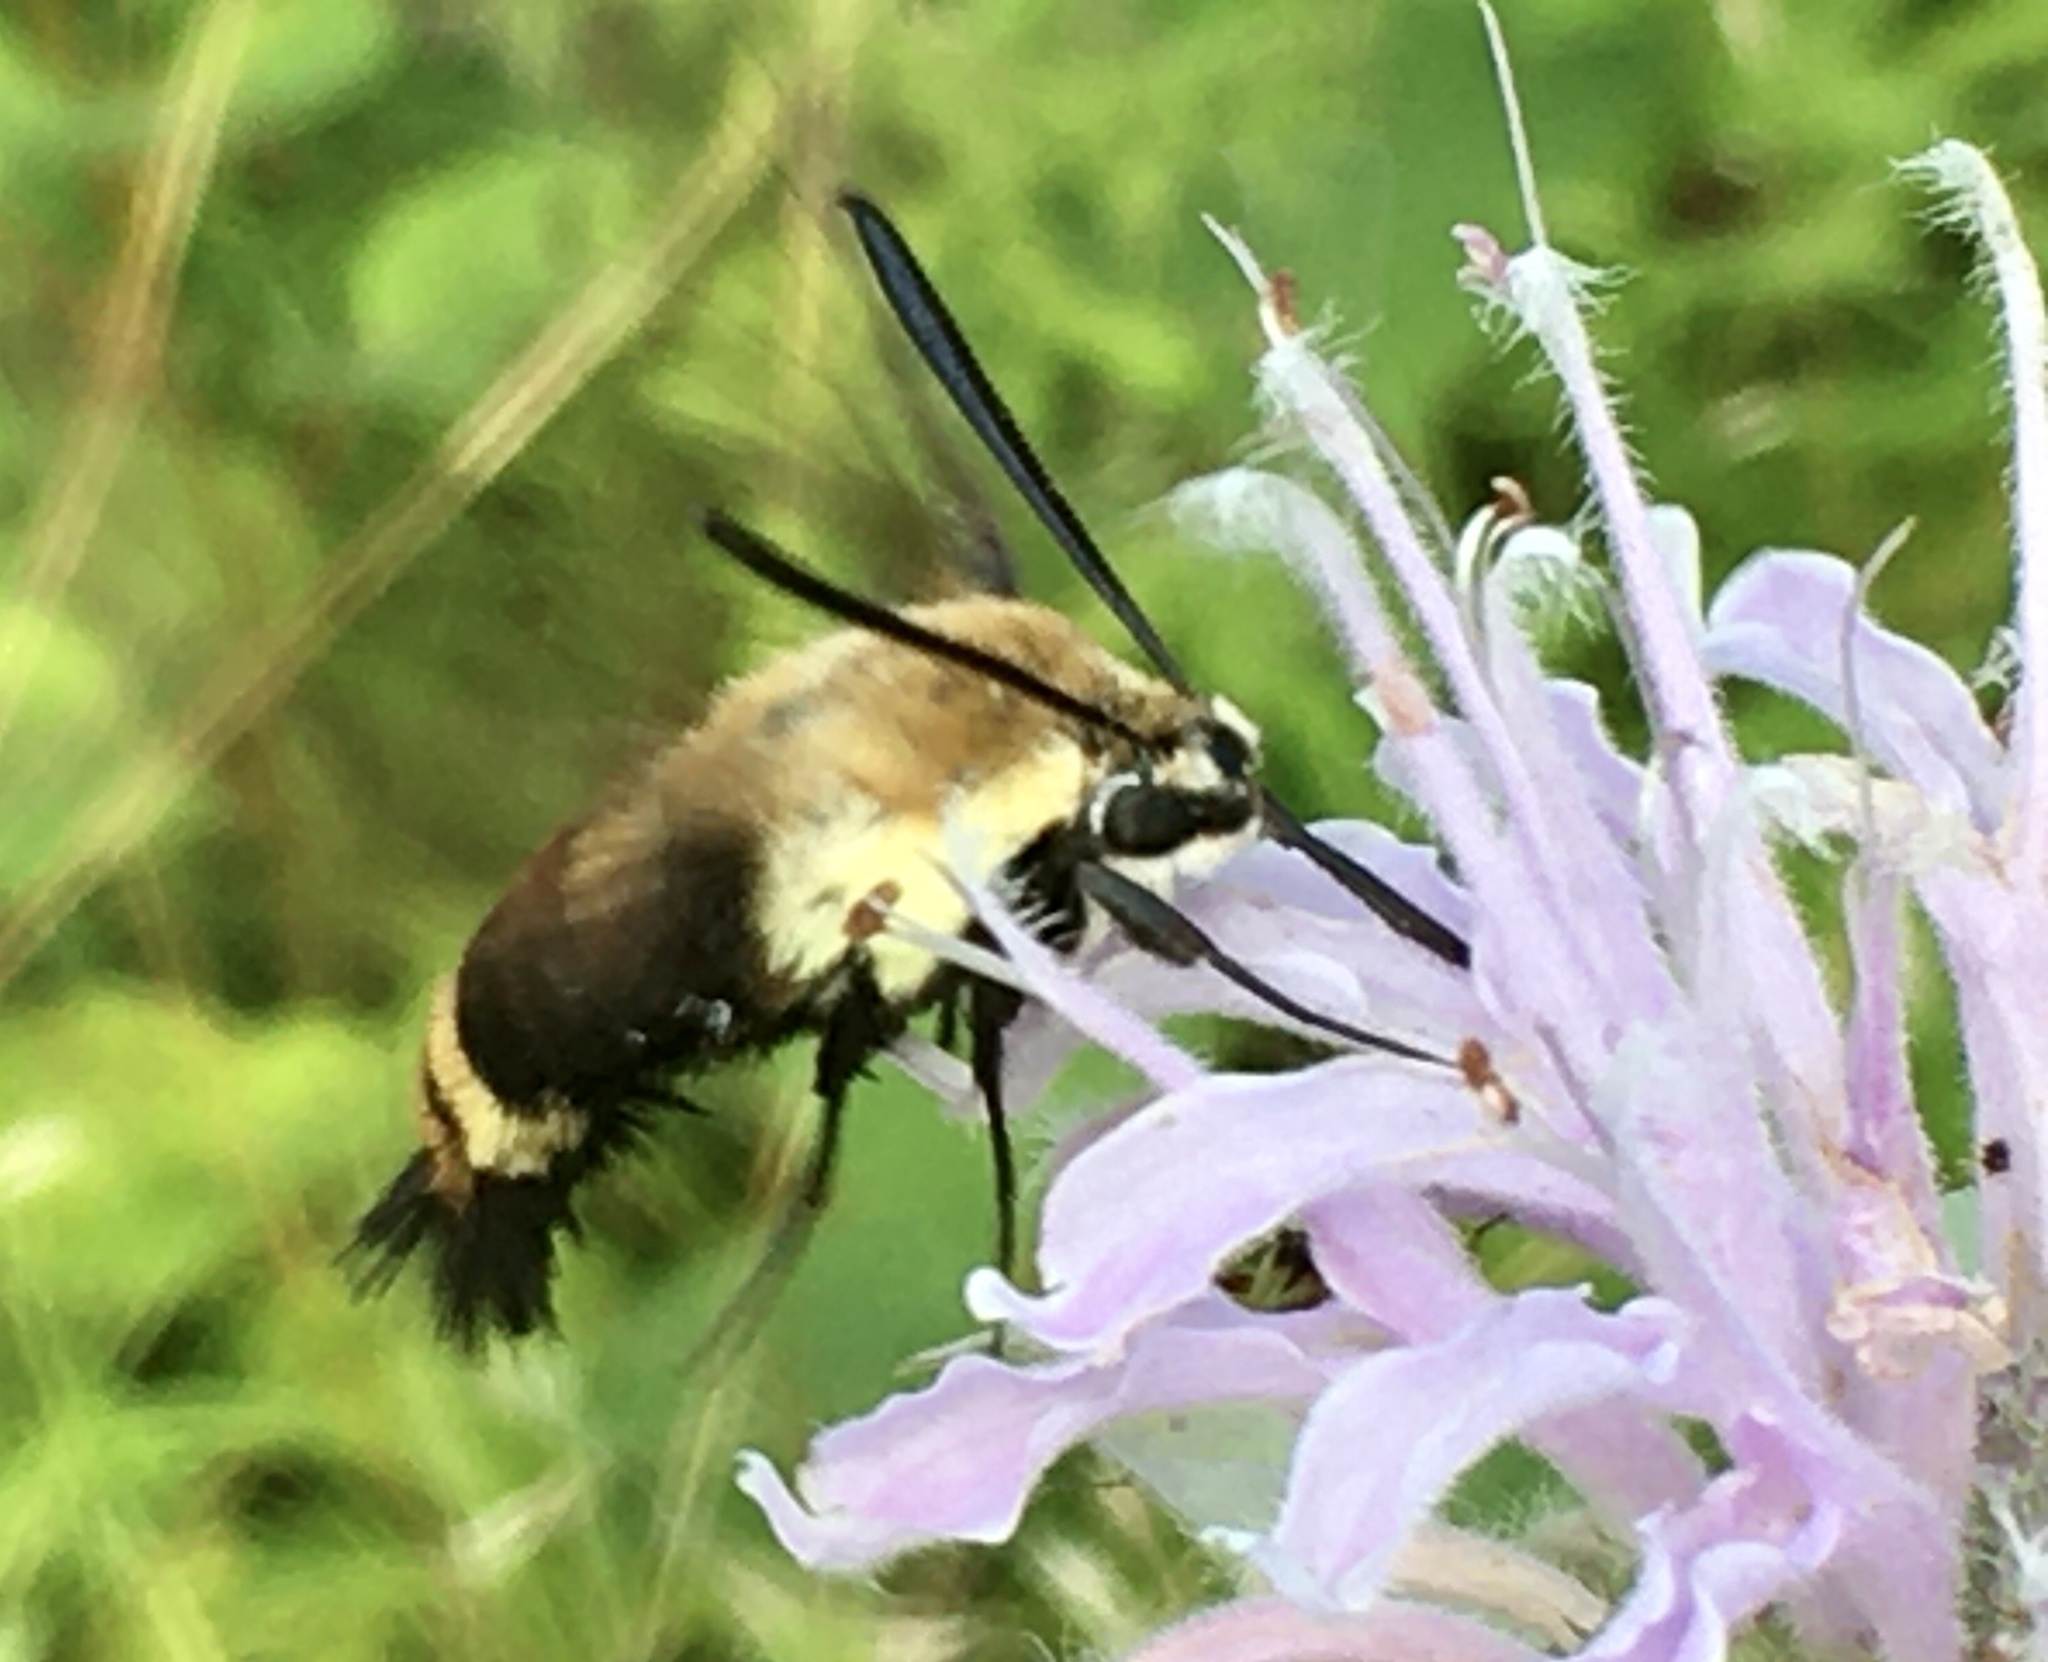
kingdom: Animalia
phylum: Arthropoda
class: Insecta
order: Lepidoptera
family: Sphingidae
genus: Hemaris
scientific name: Hemaris diffinis
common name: Bumblebee moth
